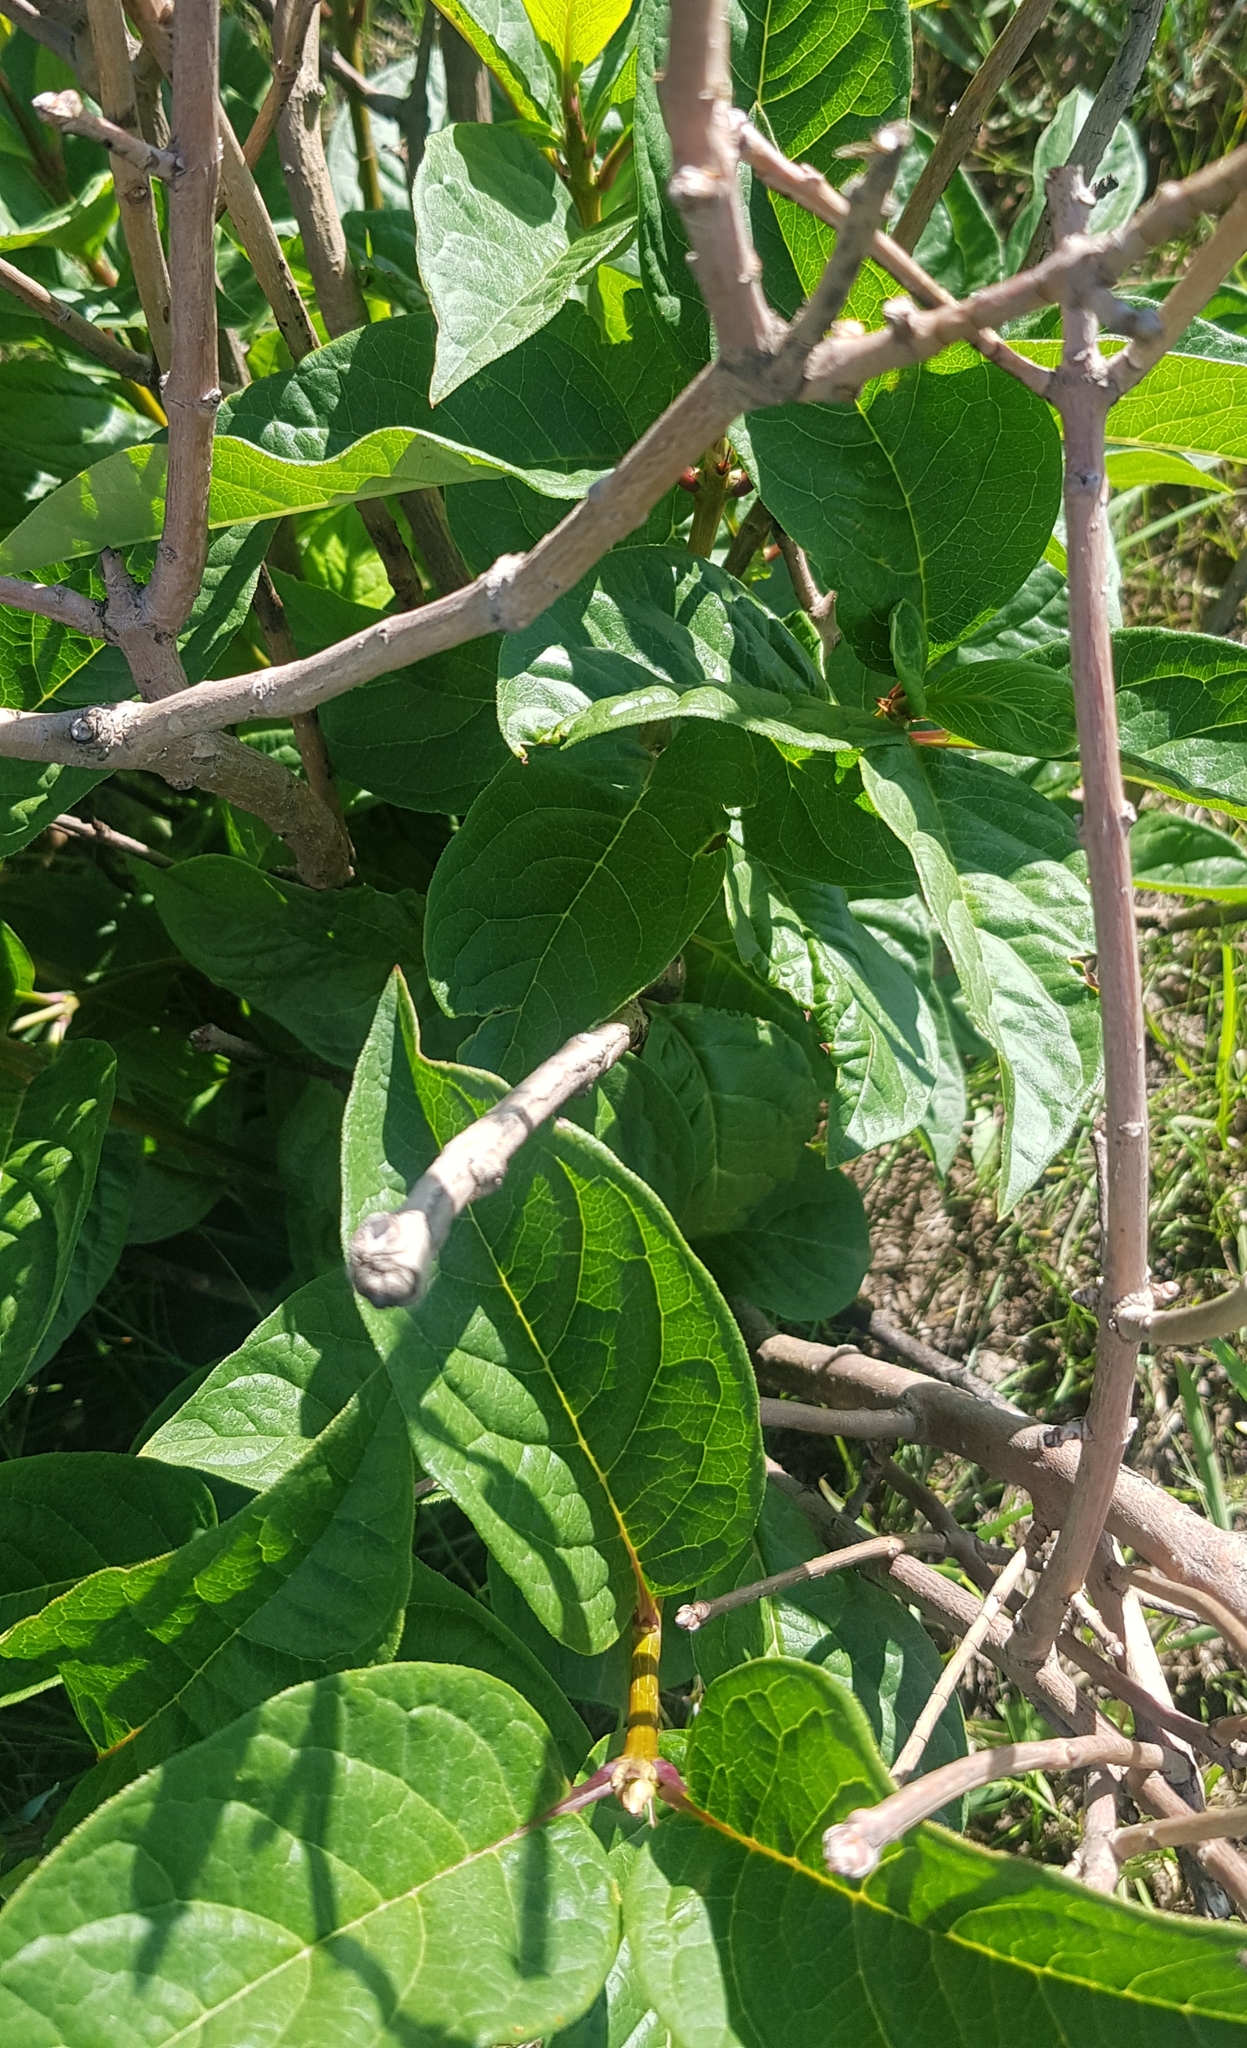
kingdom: Plantae
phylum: Tracheophyta
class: Magnoliopsida
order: Rosales
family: Rosaceae
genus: Prunus
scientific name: Prunus padus
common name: Bird cherry
